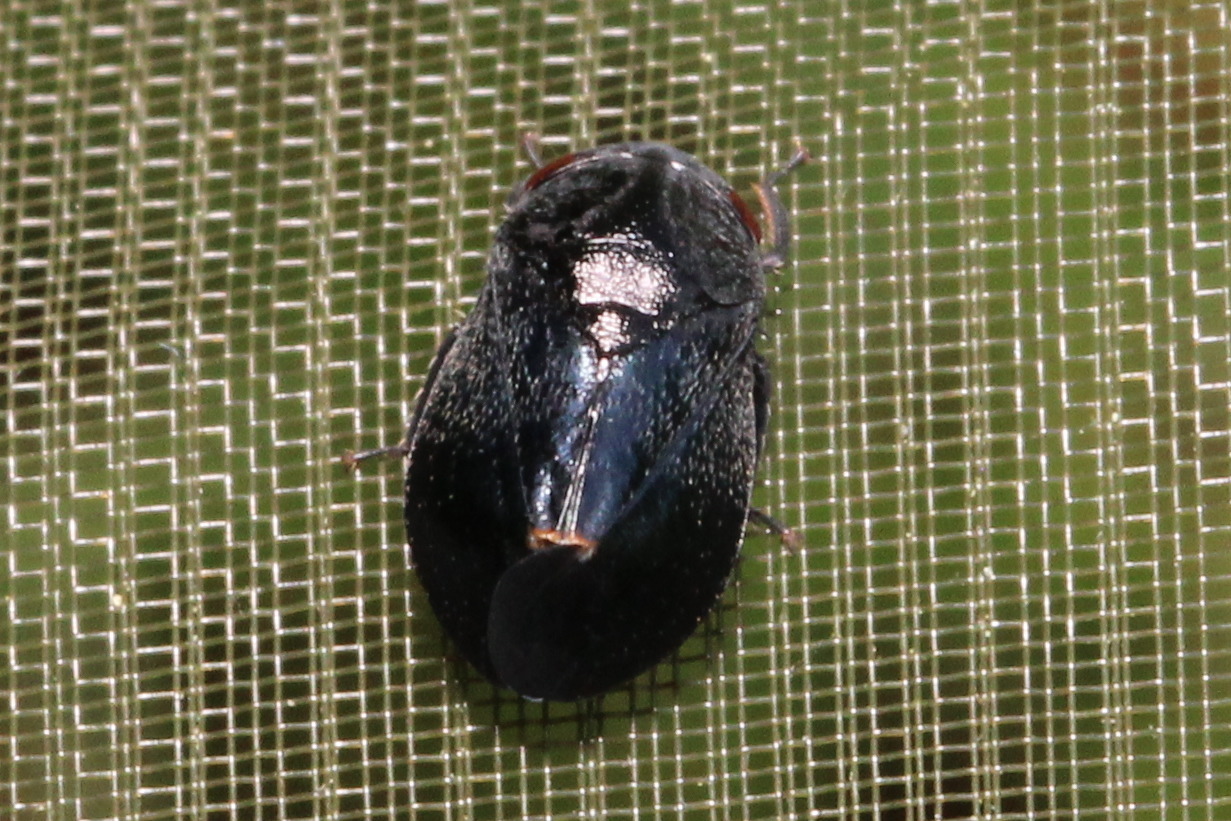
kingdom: Animalia
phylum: Arthropoda
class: Insecta
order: Hemiptera
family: Cicadellidae
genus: Penthimia
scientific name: Penthimia nigra
